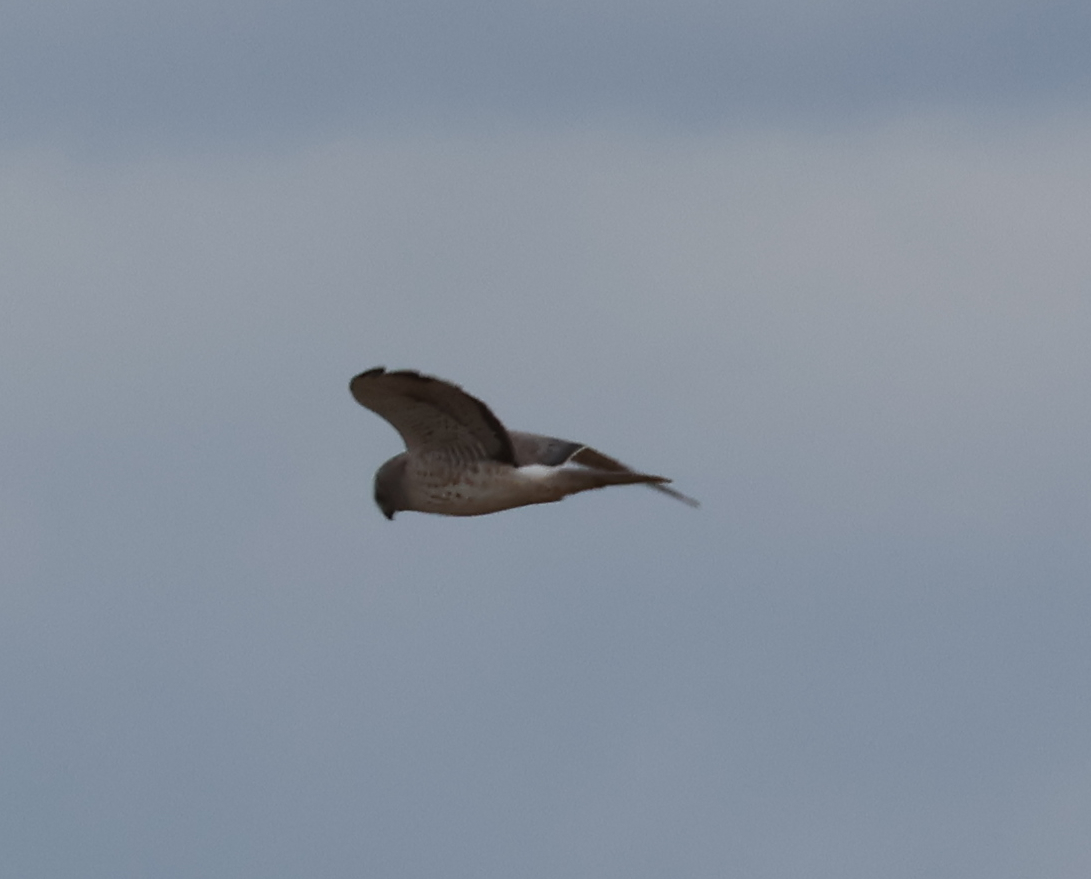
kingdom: Animalia
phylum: Chordata
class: Aves
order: Accipitriformes
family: Accipitridae
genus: Circus
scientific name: Circus cyaneus
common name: Hen harrier
